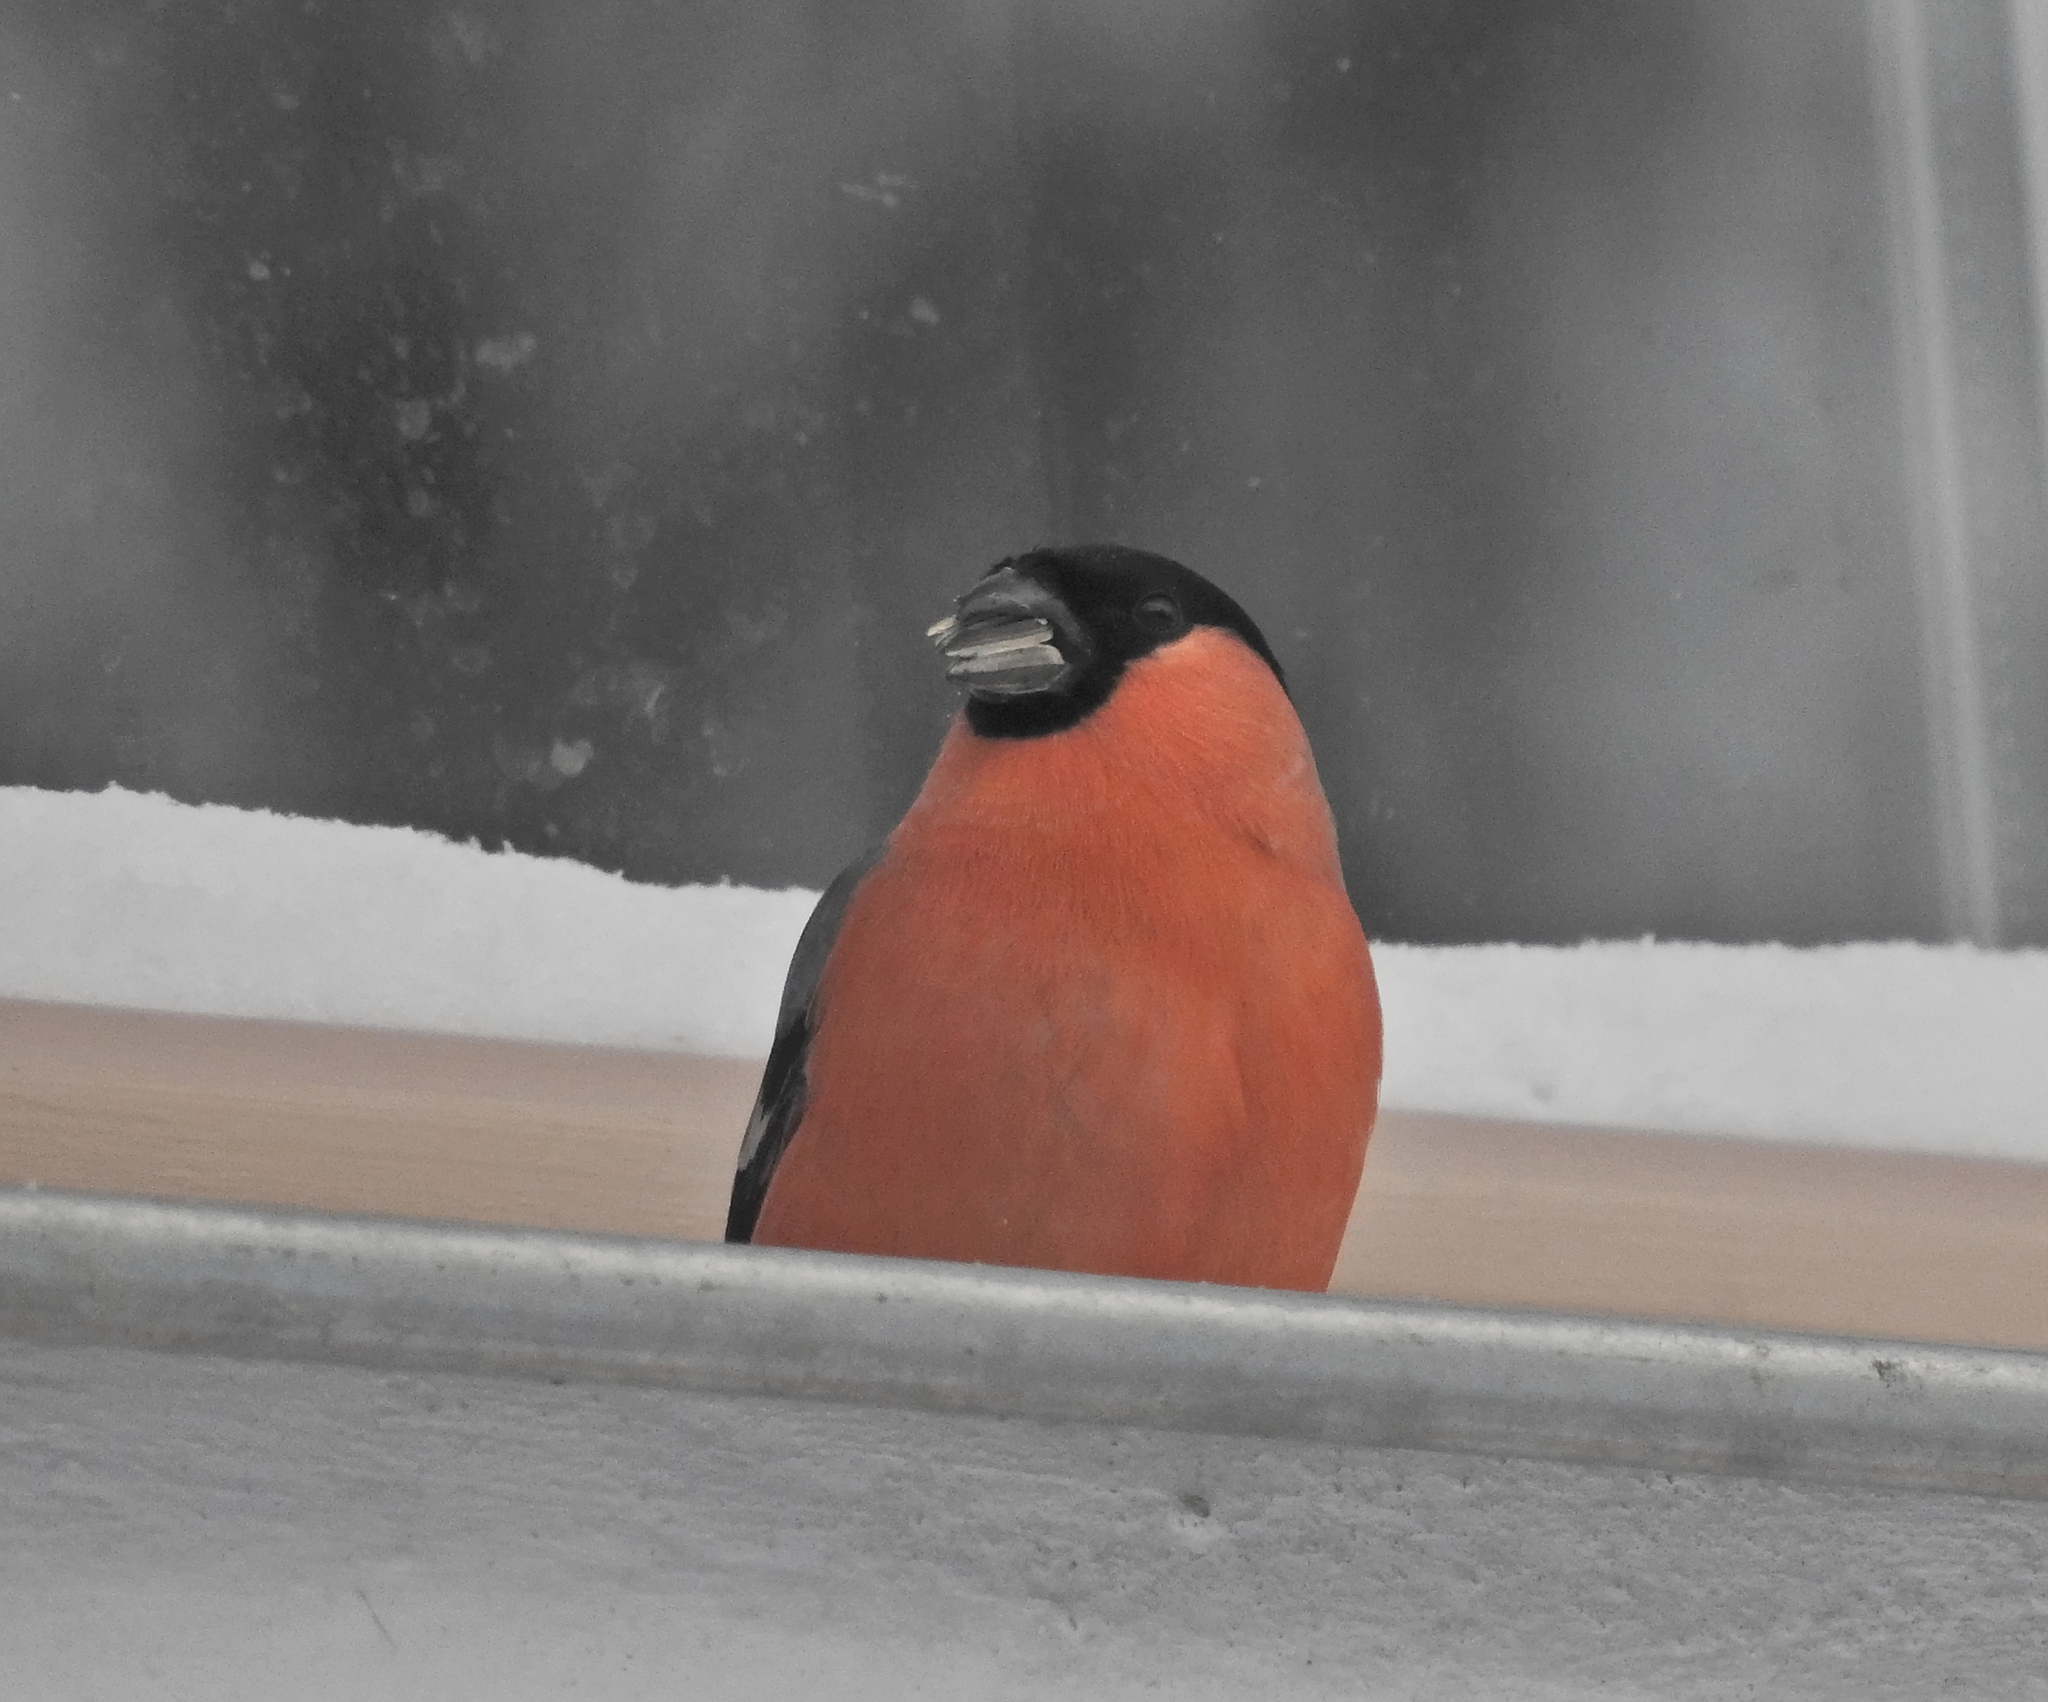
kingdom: Animalia
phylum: Chordata
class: Aves
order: Passeriformes
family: Fringillidae
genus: Pyrrhula
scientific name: Pyrrhula pyrrhula
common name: Eurasian bullfinch
